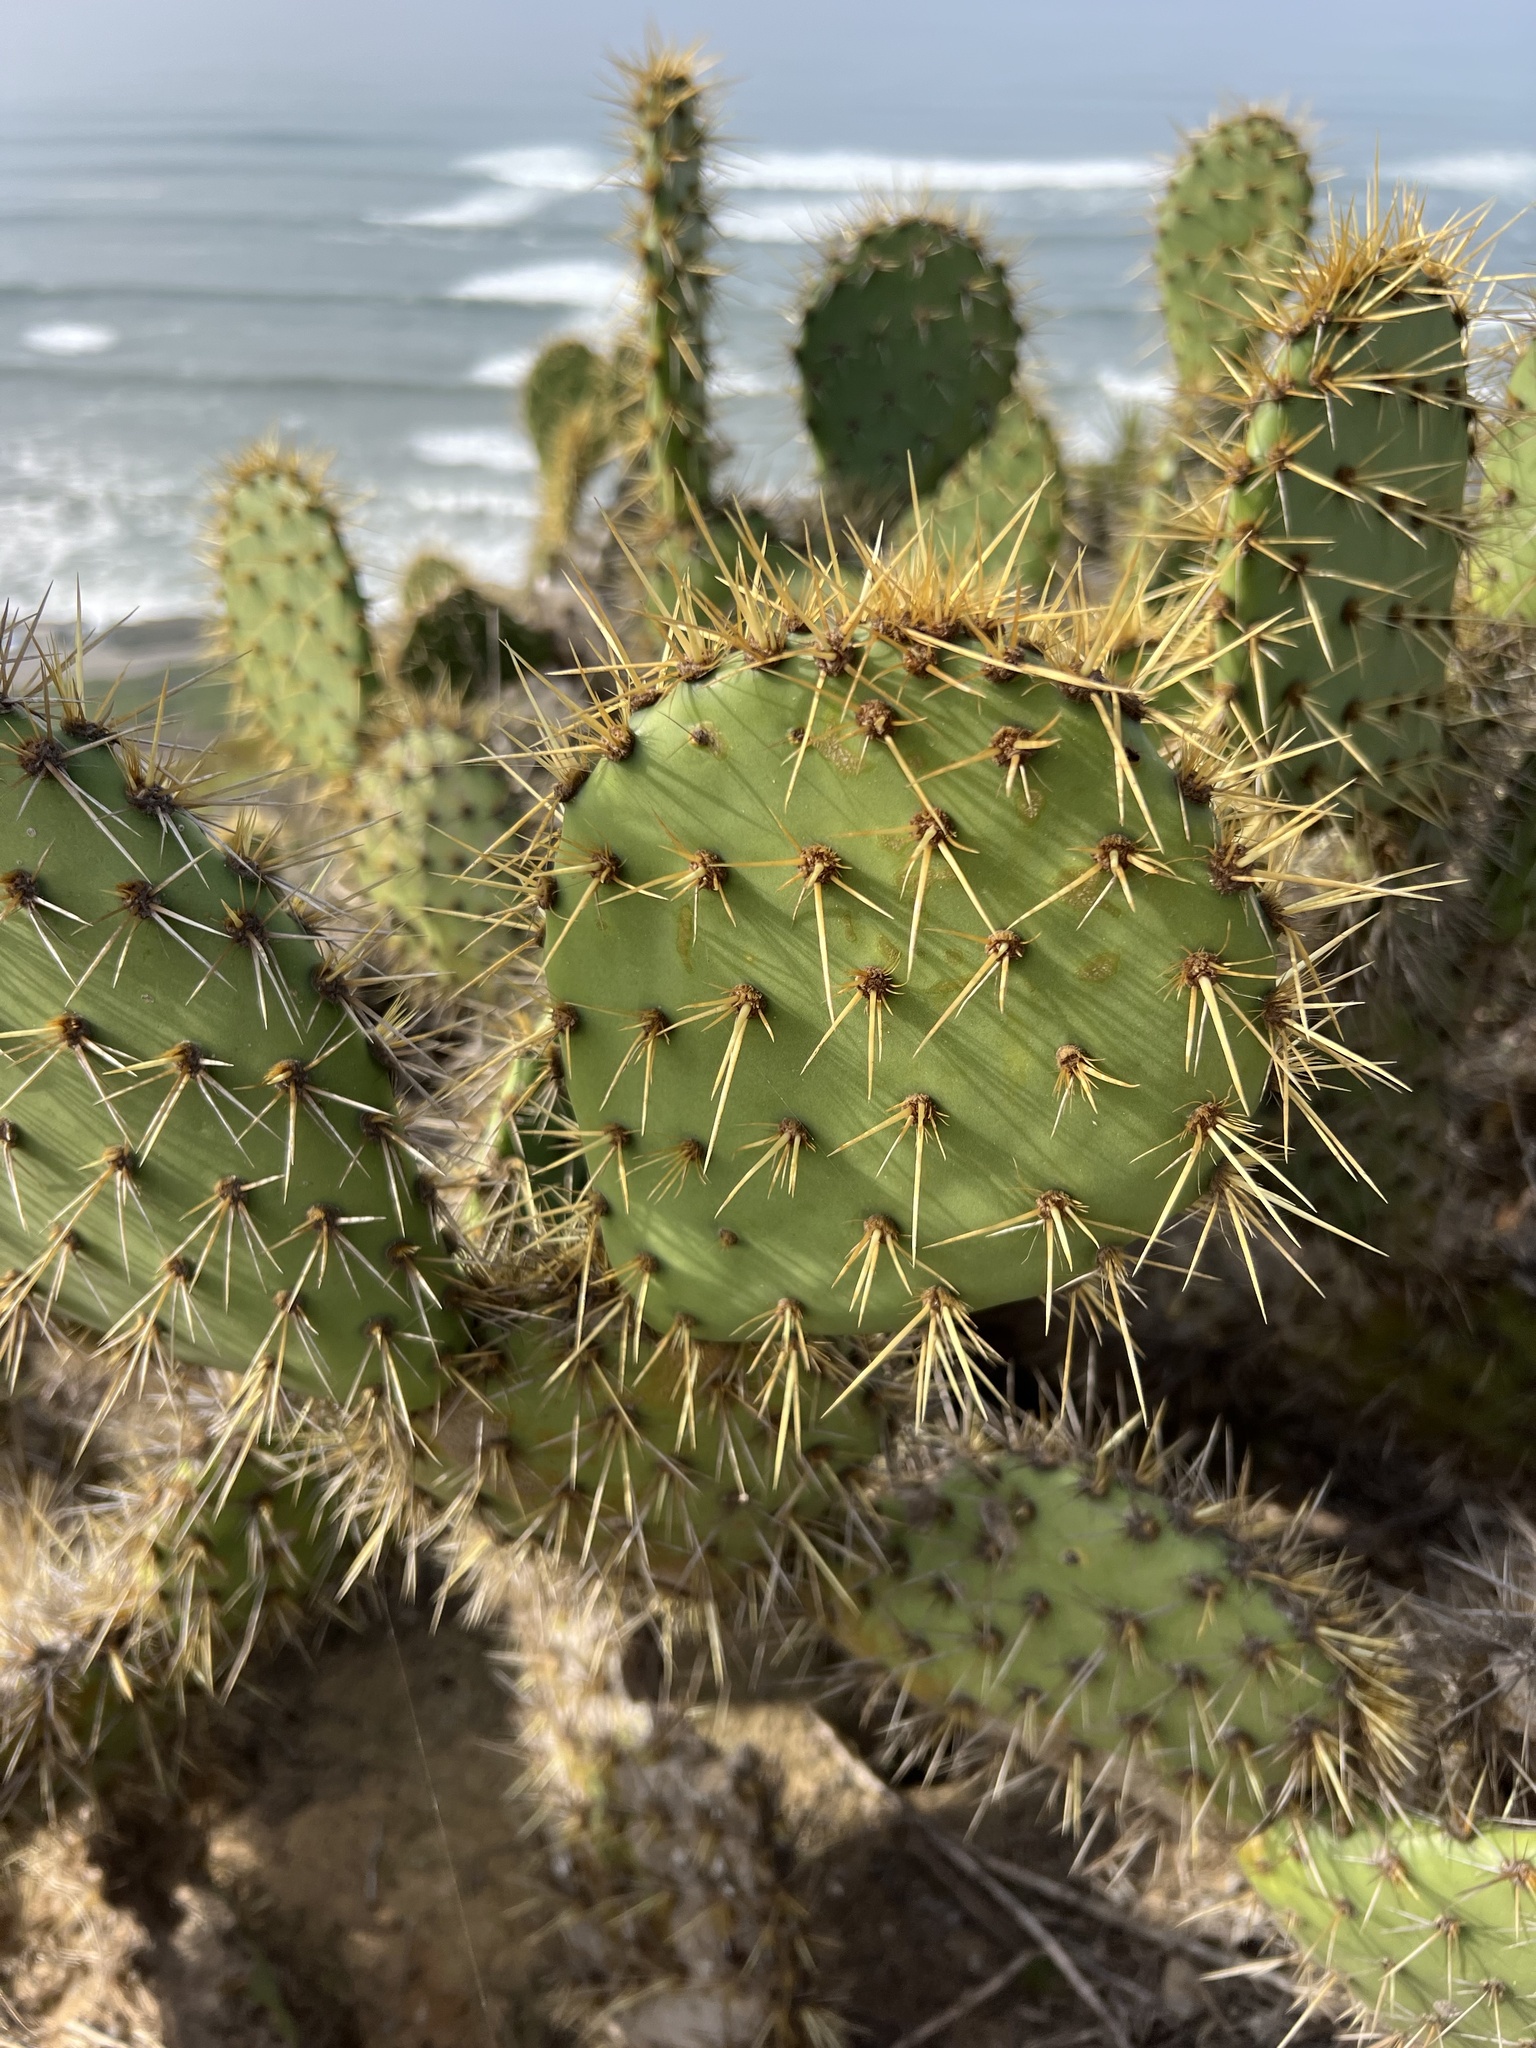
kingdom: Plantae
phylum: Tracheophyta
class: Magnoliopsida
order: Caryophyllales
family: Cactaceae
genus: Opuntia
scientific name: Opuntia oricola
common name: Chaparral prickly-pear
